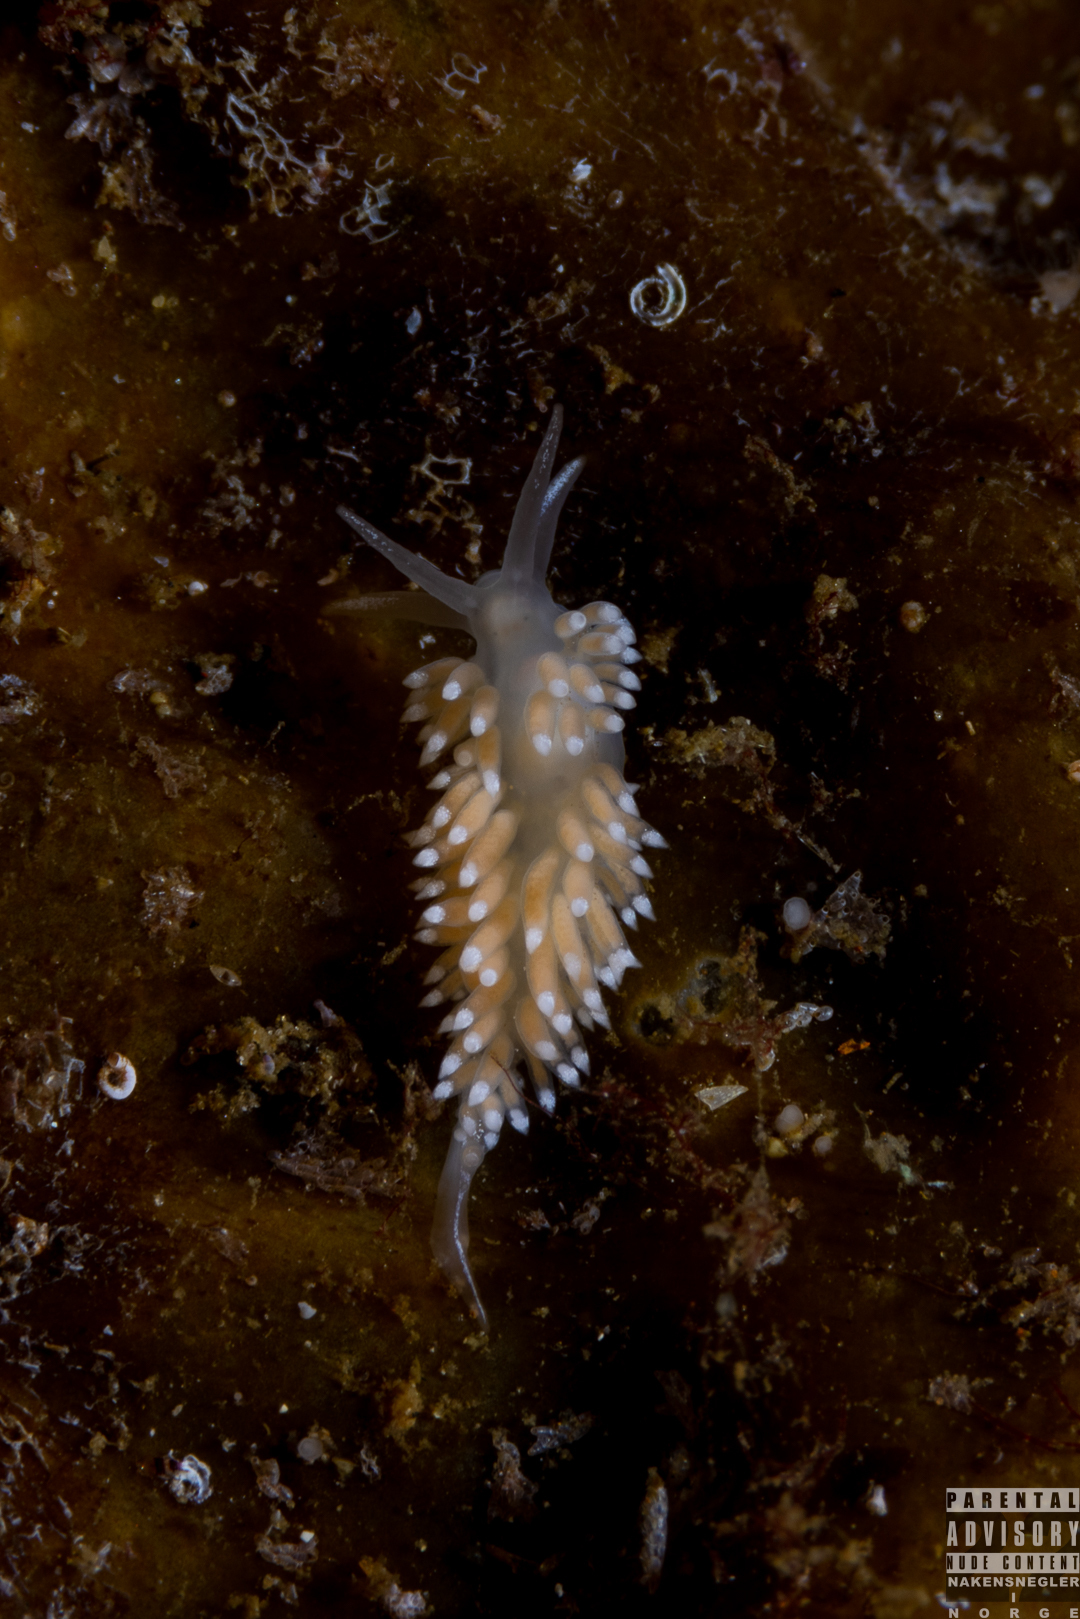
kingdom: Animalia
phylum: Mollusca
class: Gastropoda
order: Nudibranchia
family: Coryphellidae
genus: Coryphella
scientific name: Coryphella verrucosa
